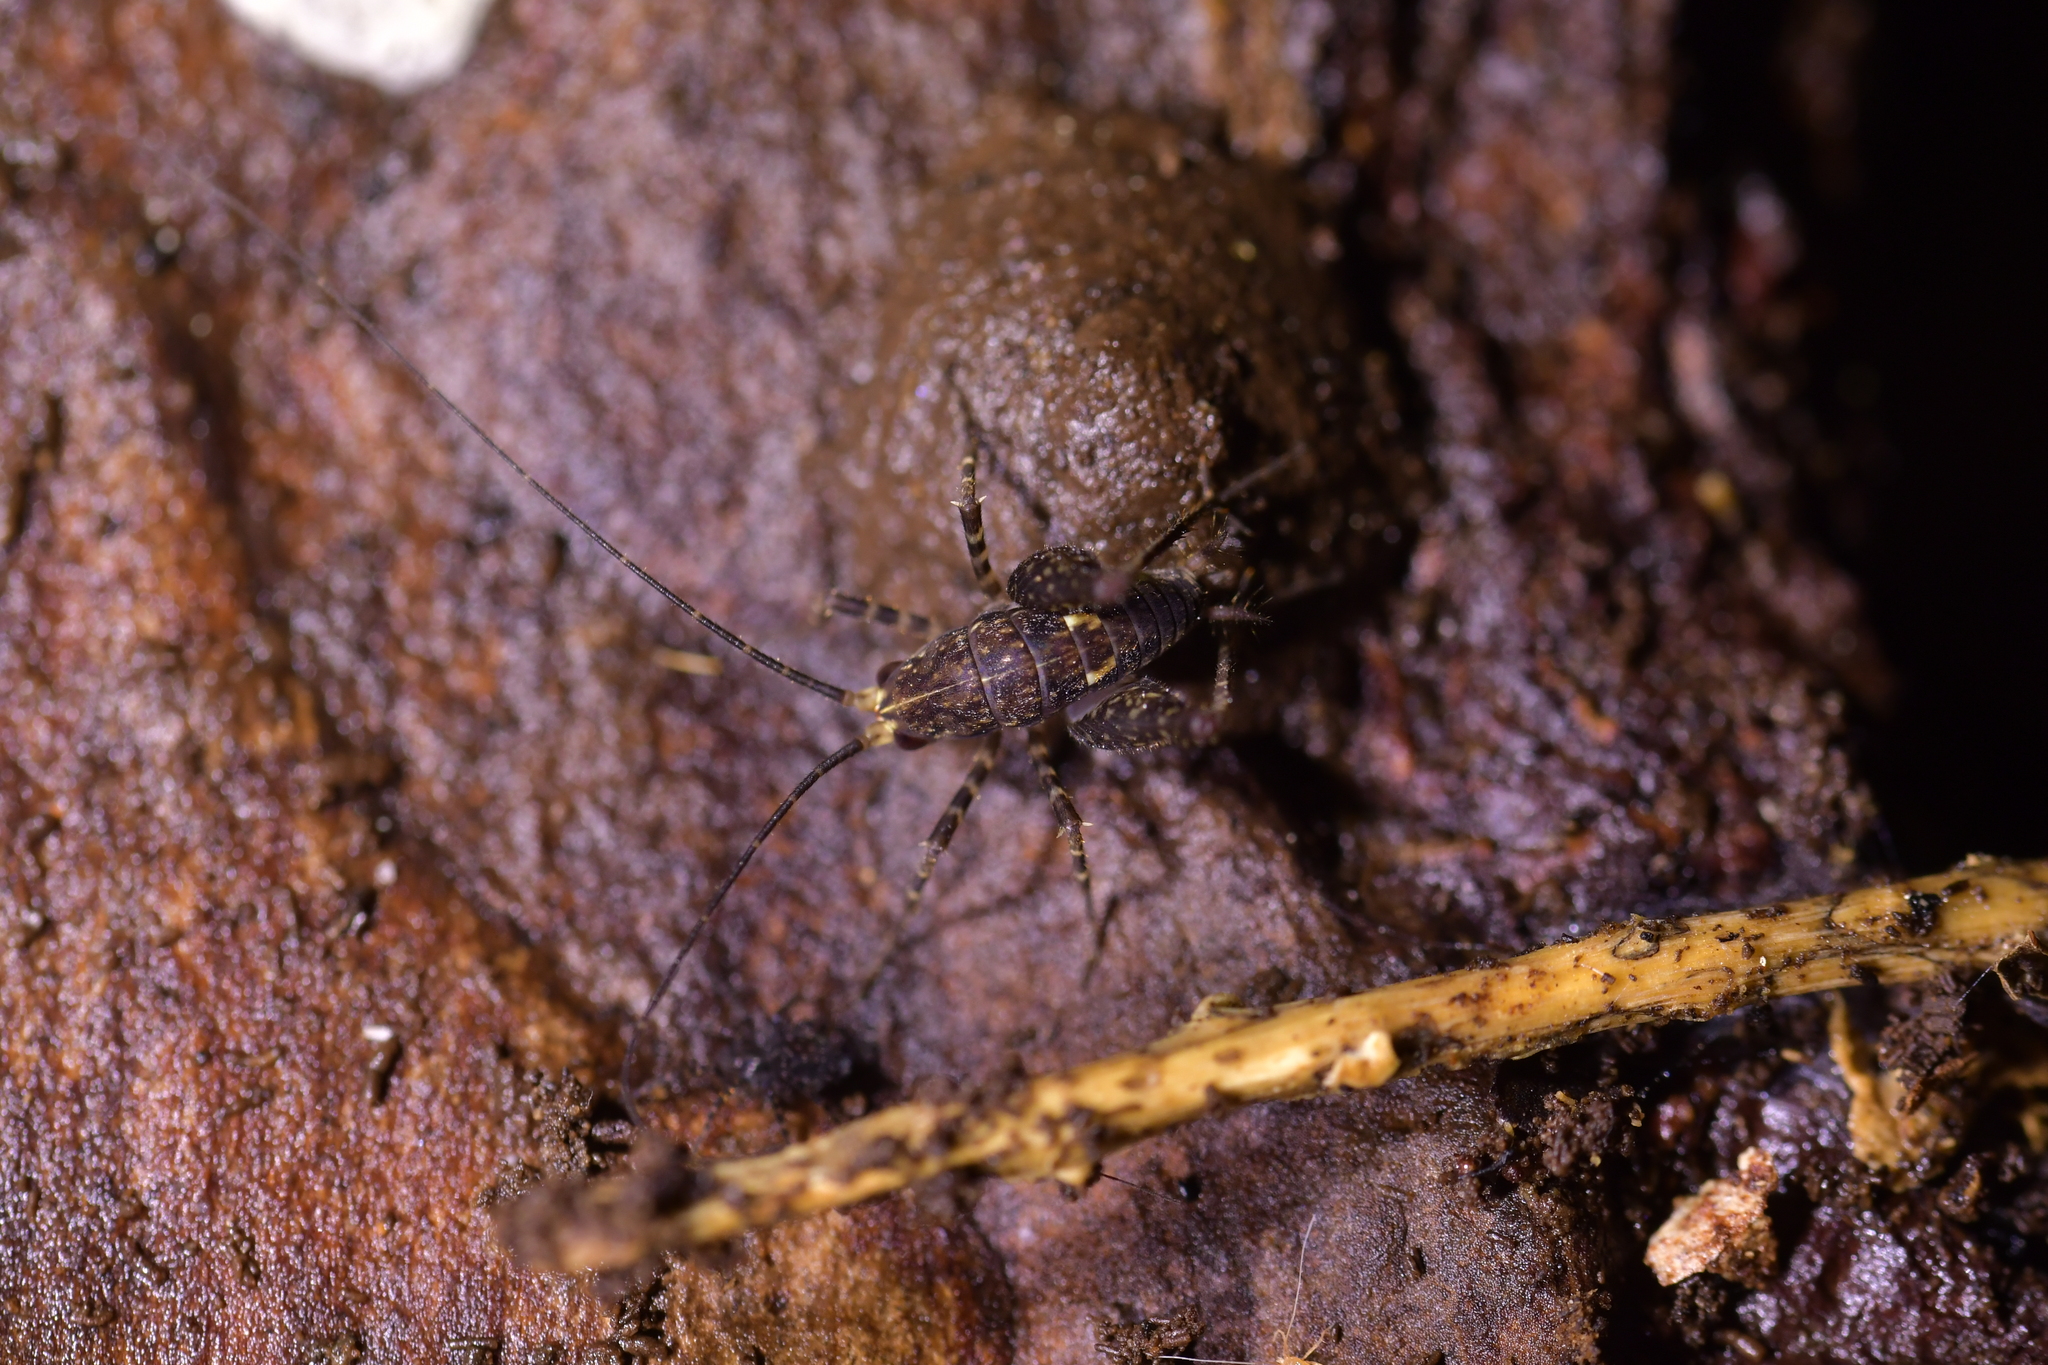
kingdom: Animalia
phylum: Arthropoda
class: Insecta
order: Orthoptera
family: Rhaphidophoridae
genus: Miotopus
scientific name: Miotopus diversus
